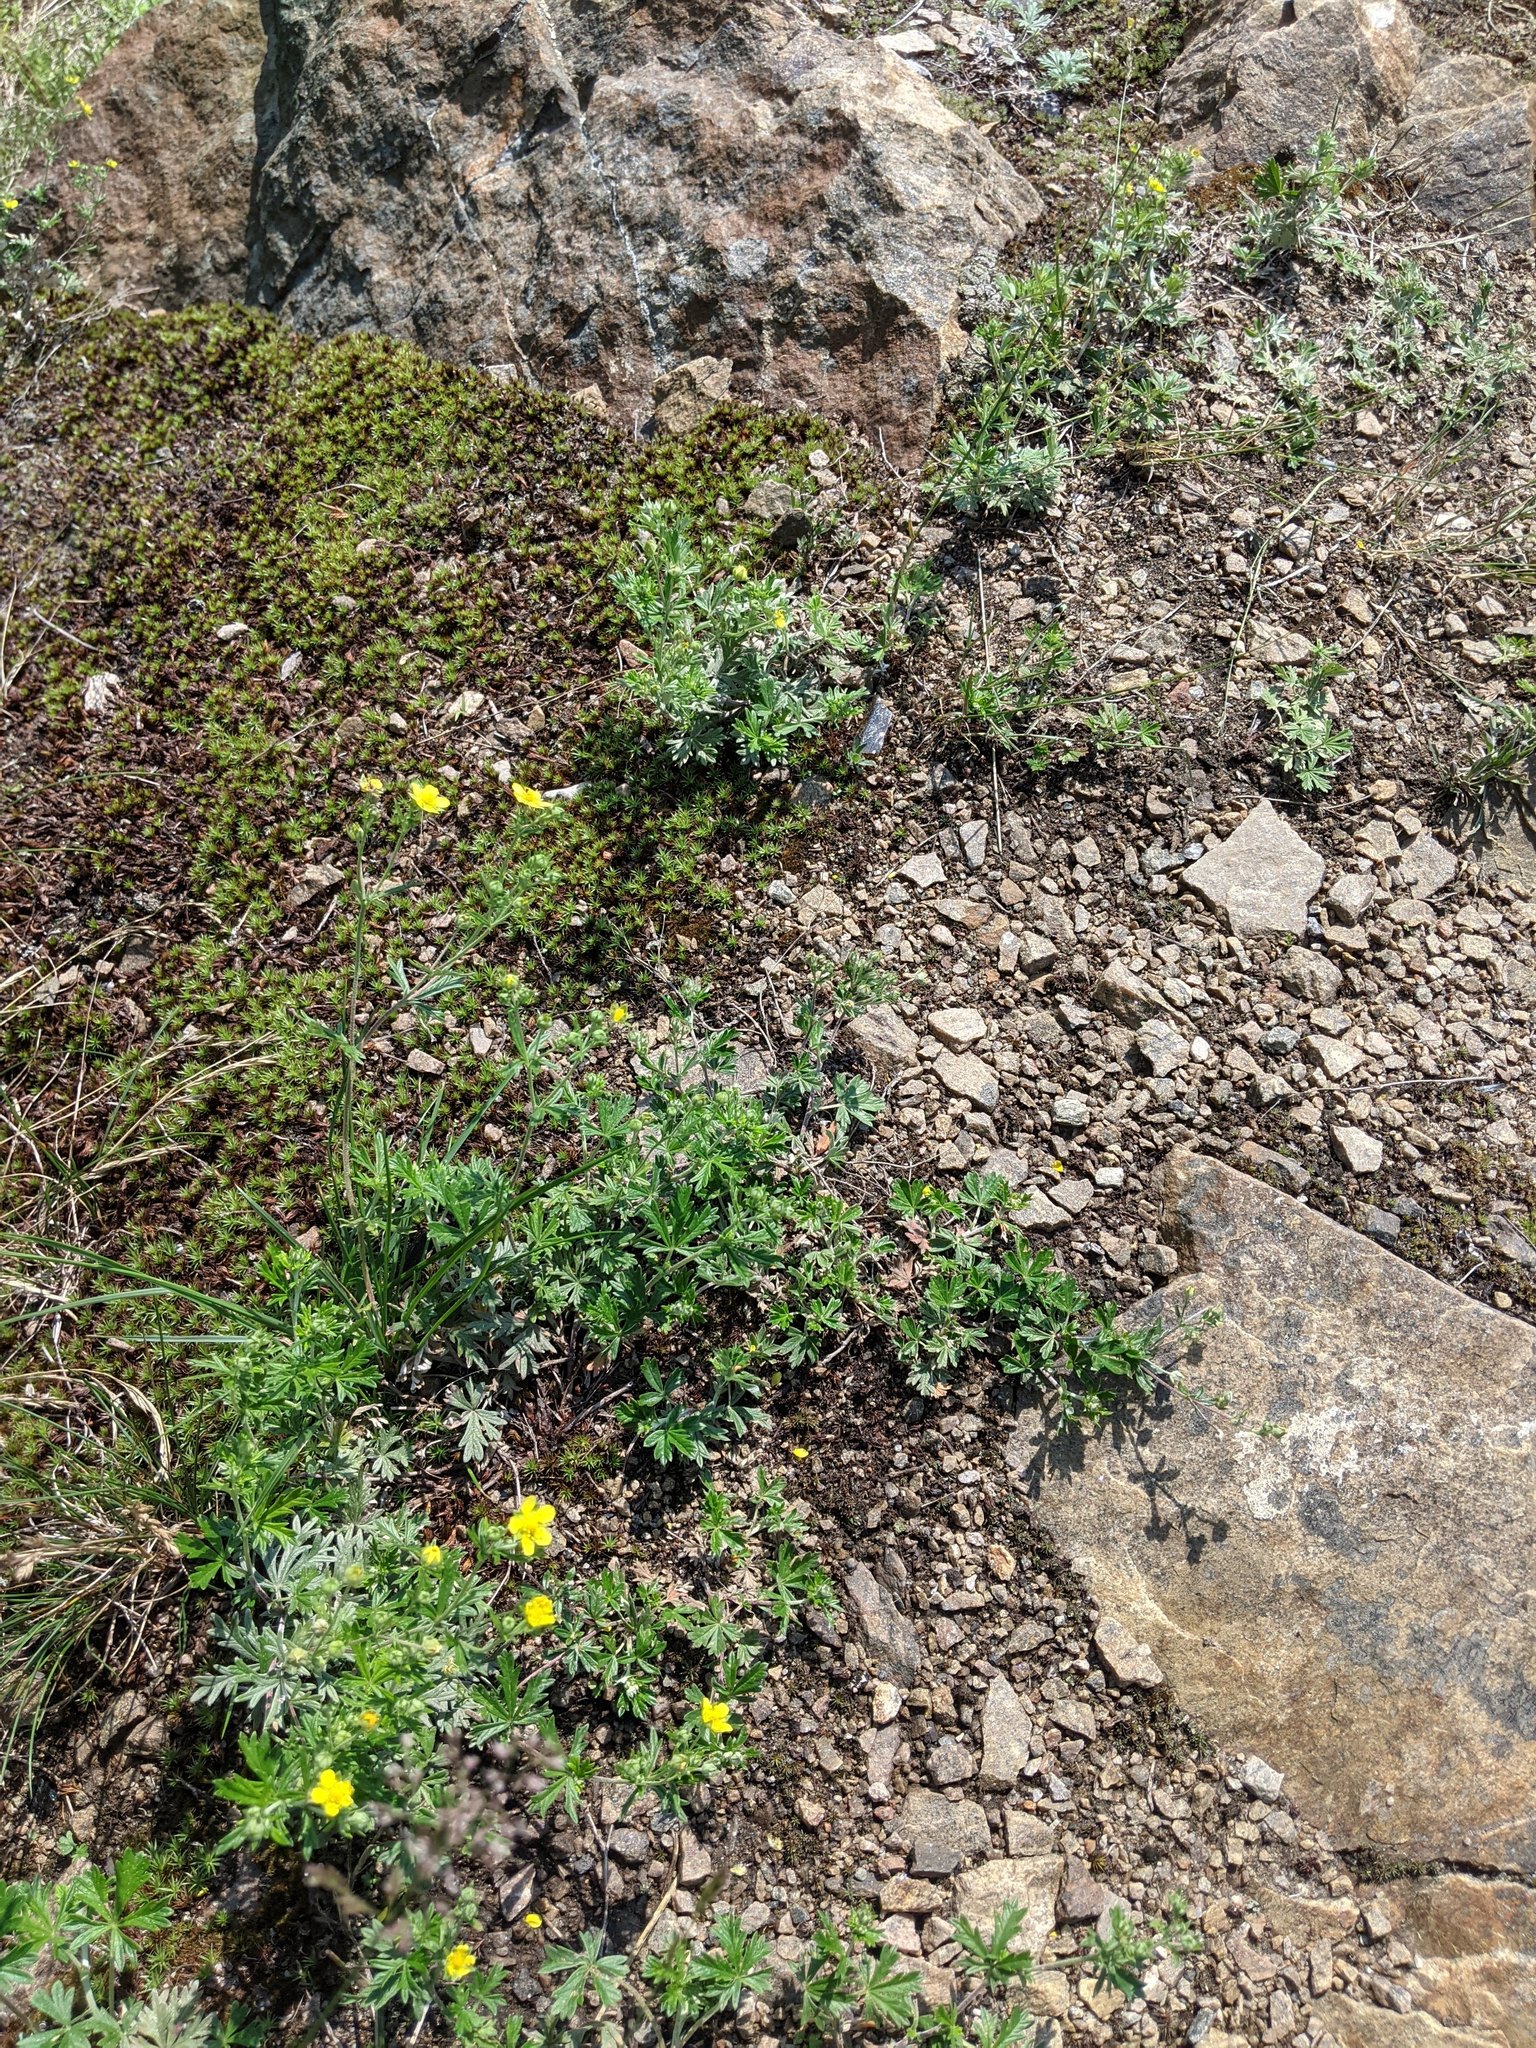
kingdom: Plantae
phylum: Tracheophyta
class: Magnoliopsida
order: Rosales
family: Rosaceae
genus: Potentilla
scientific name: Potentilla argentea
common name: Hoary cinquefoil
